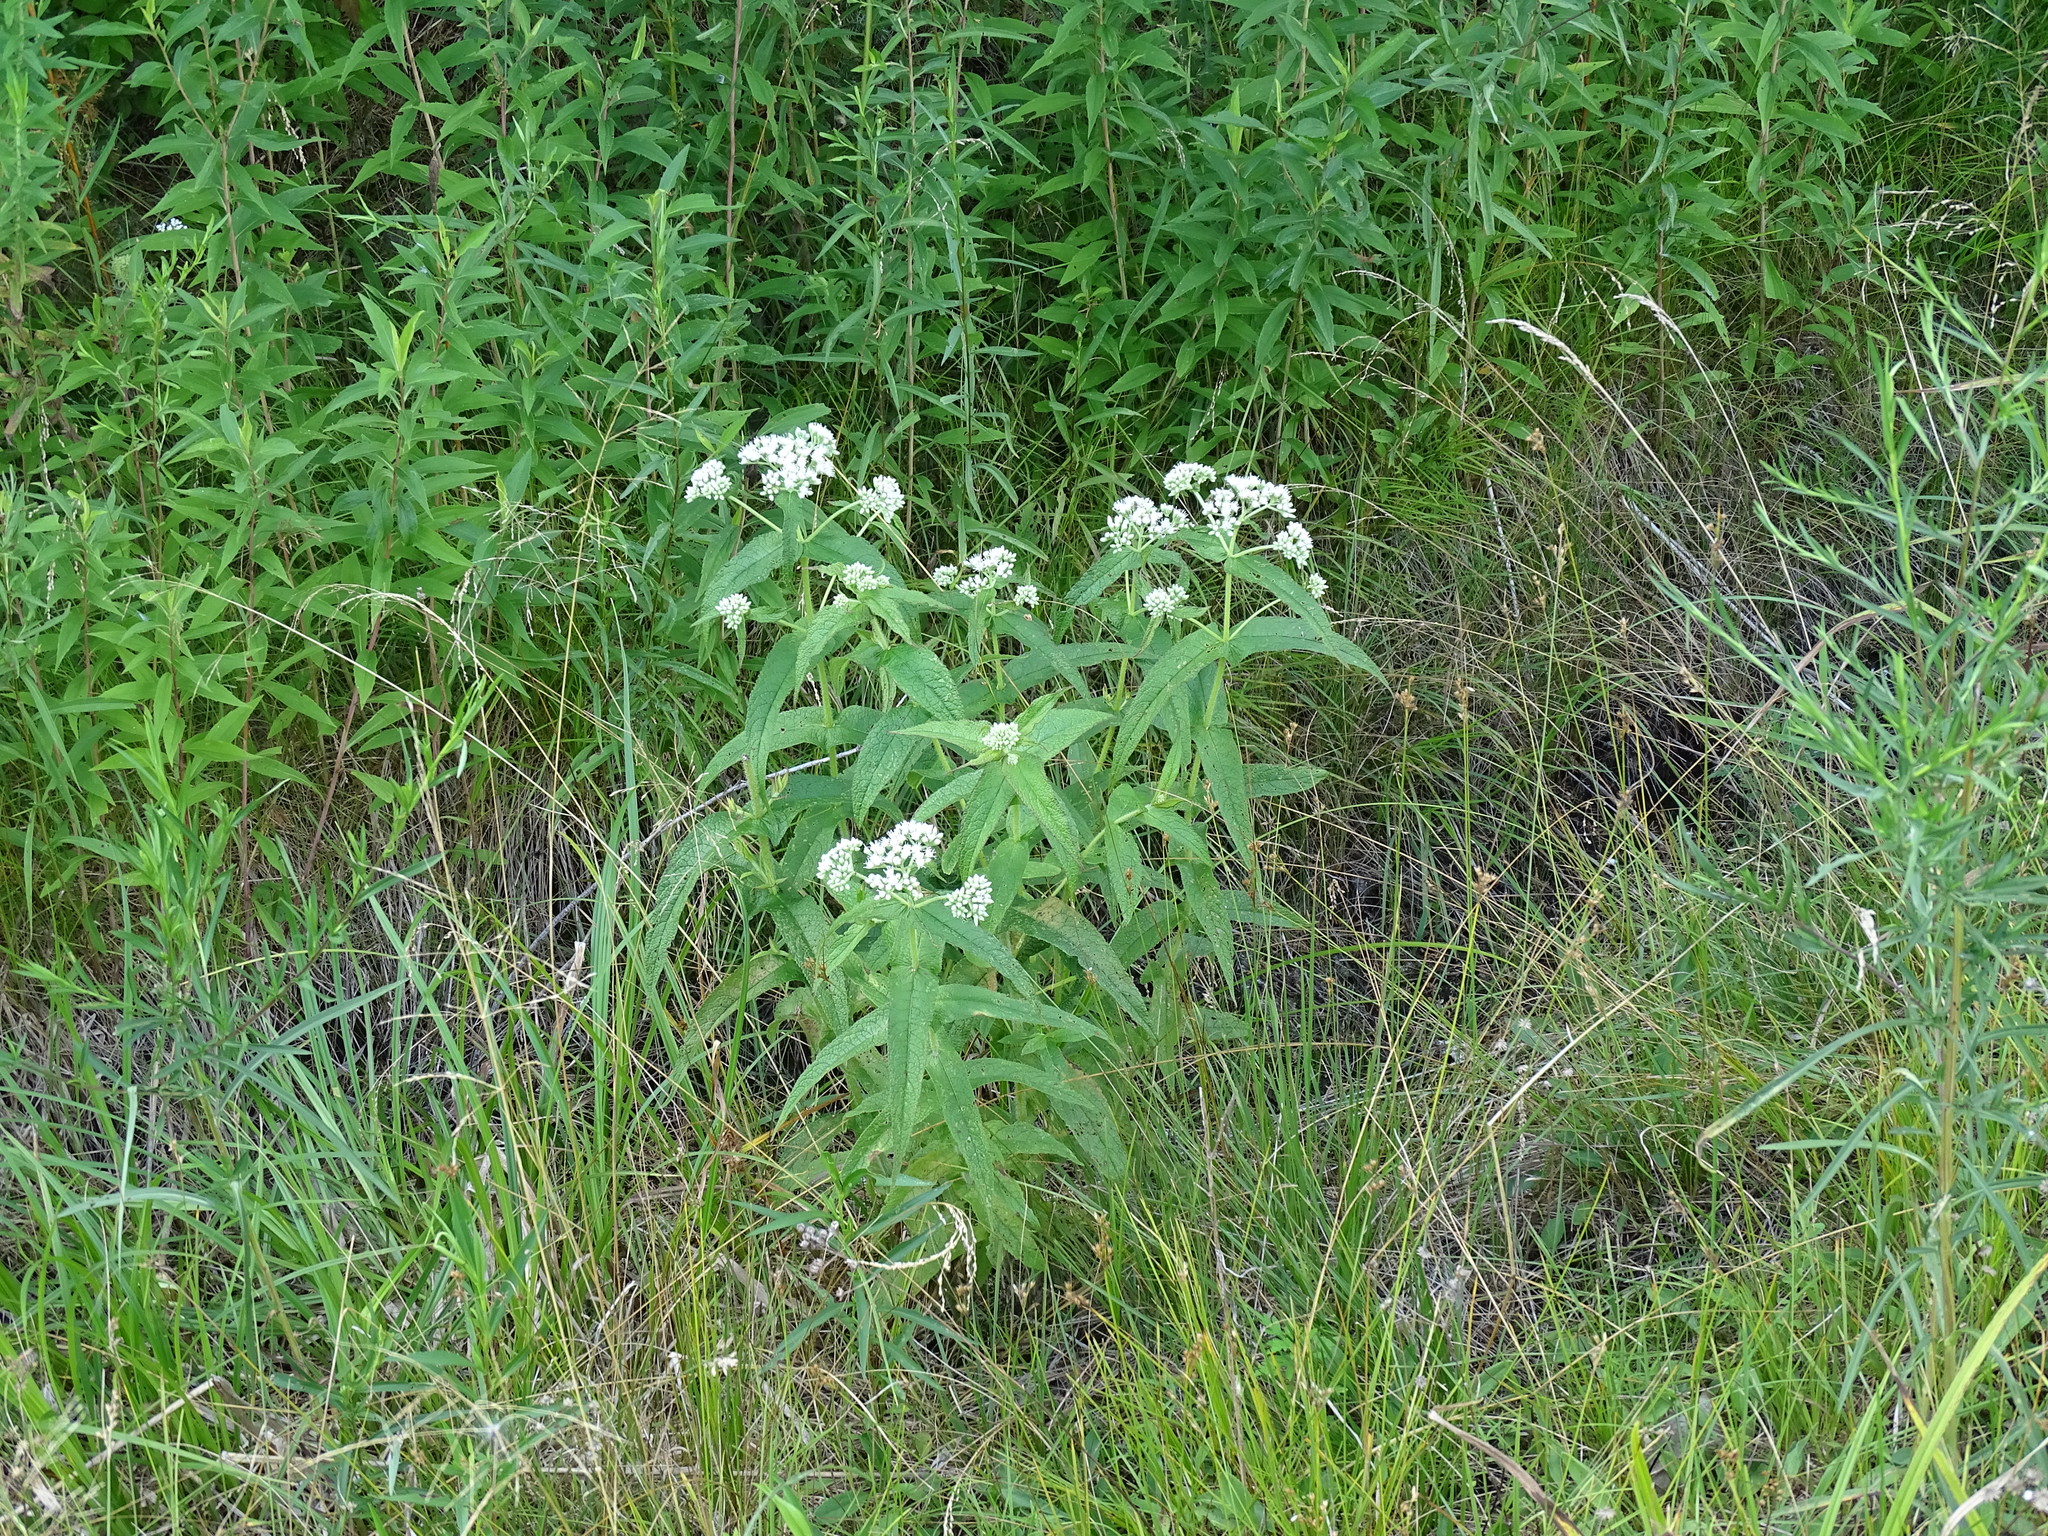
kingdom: Plantae
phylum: Tracheophyta
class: Magnoliopsida
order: Asterales
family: Asteraceae
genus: Eupatorium
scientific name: Eupatorium perfoliatum
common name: Boneset
